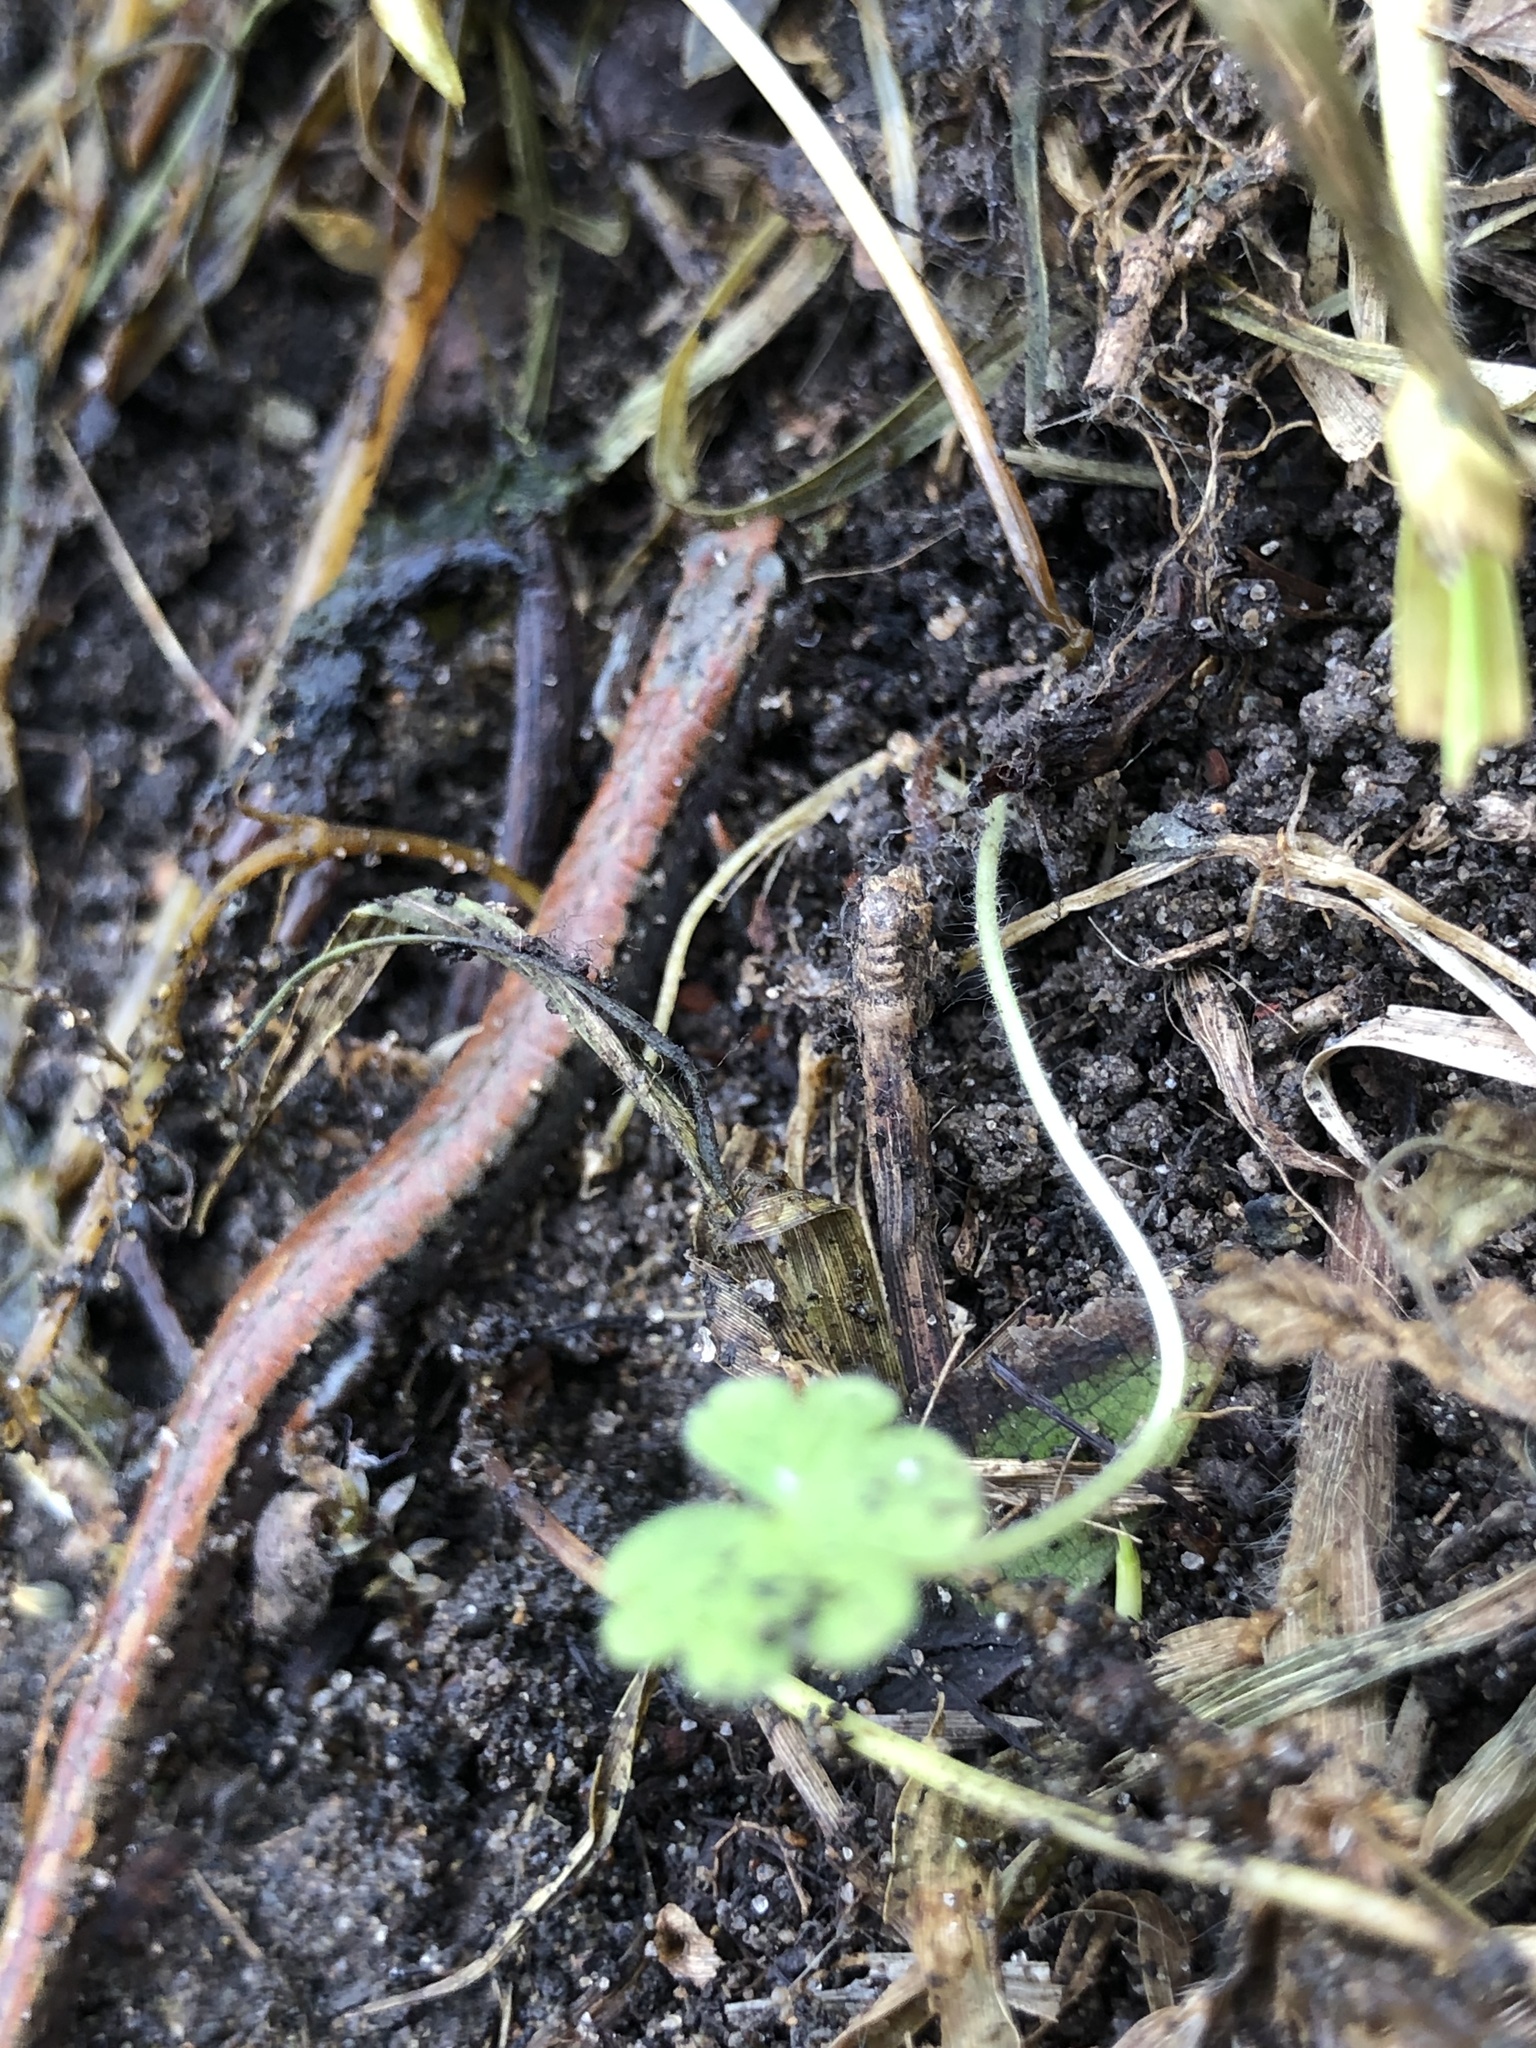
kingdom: Animalia
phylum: Chordata
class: Amphibia
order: Caudata
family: Plethodontidae
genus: Batrachoseps
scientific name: Batrachoseps attenuatus
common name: California slender salamander
